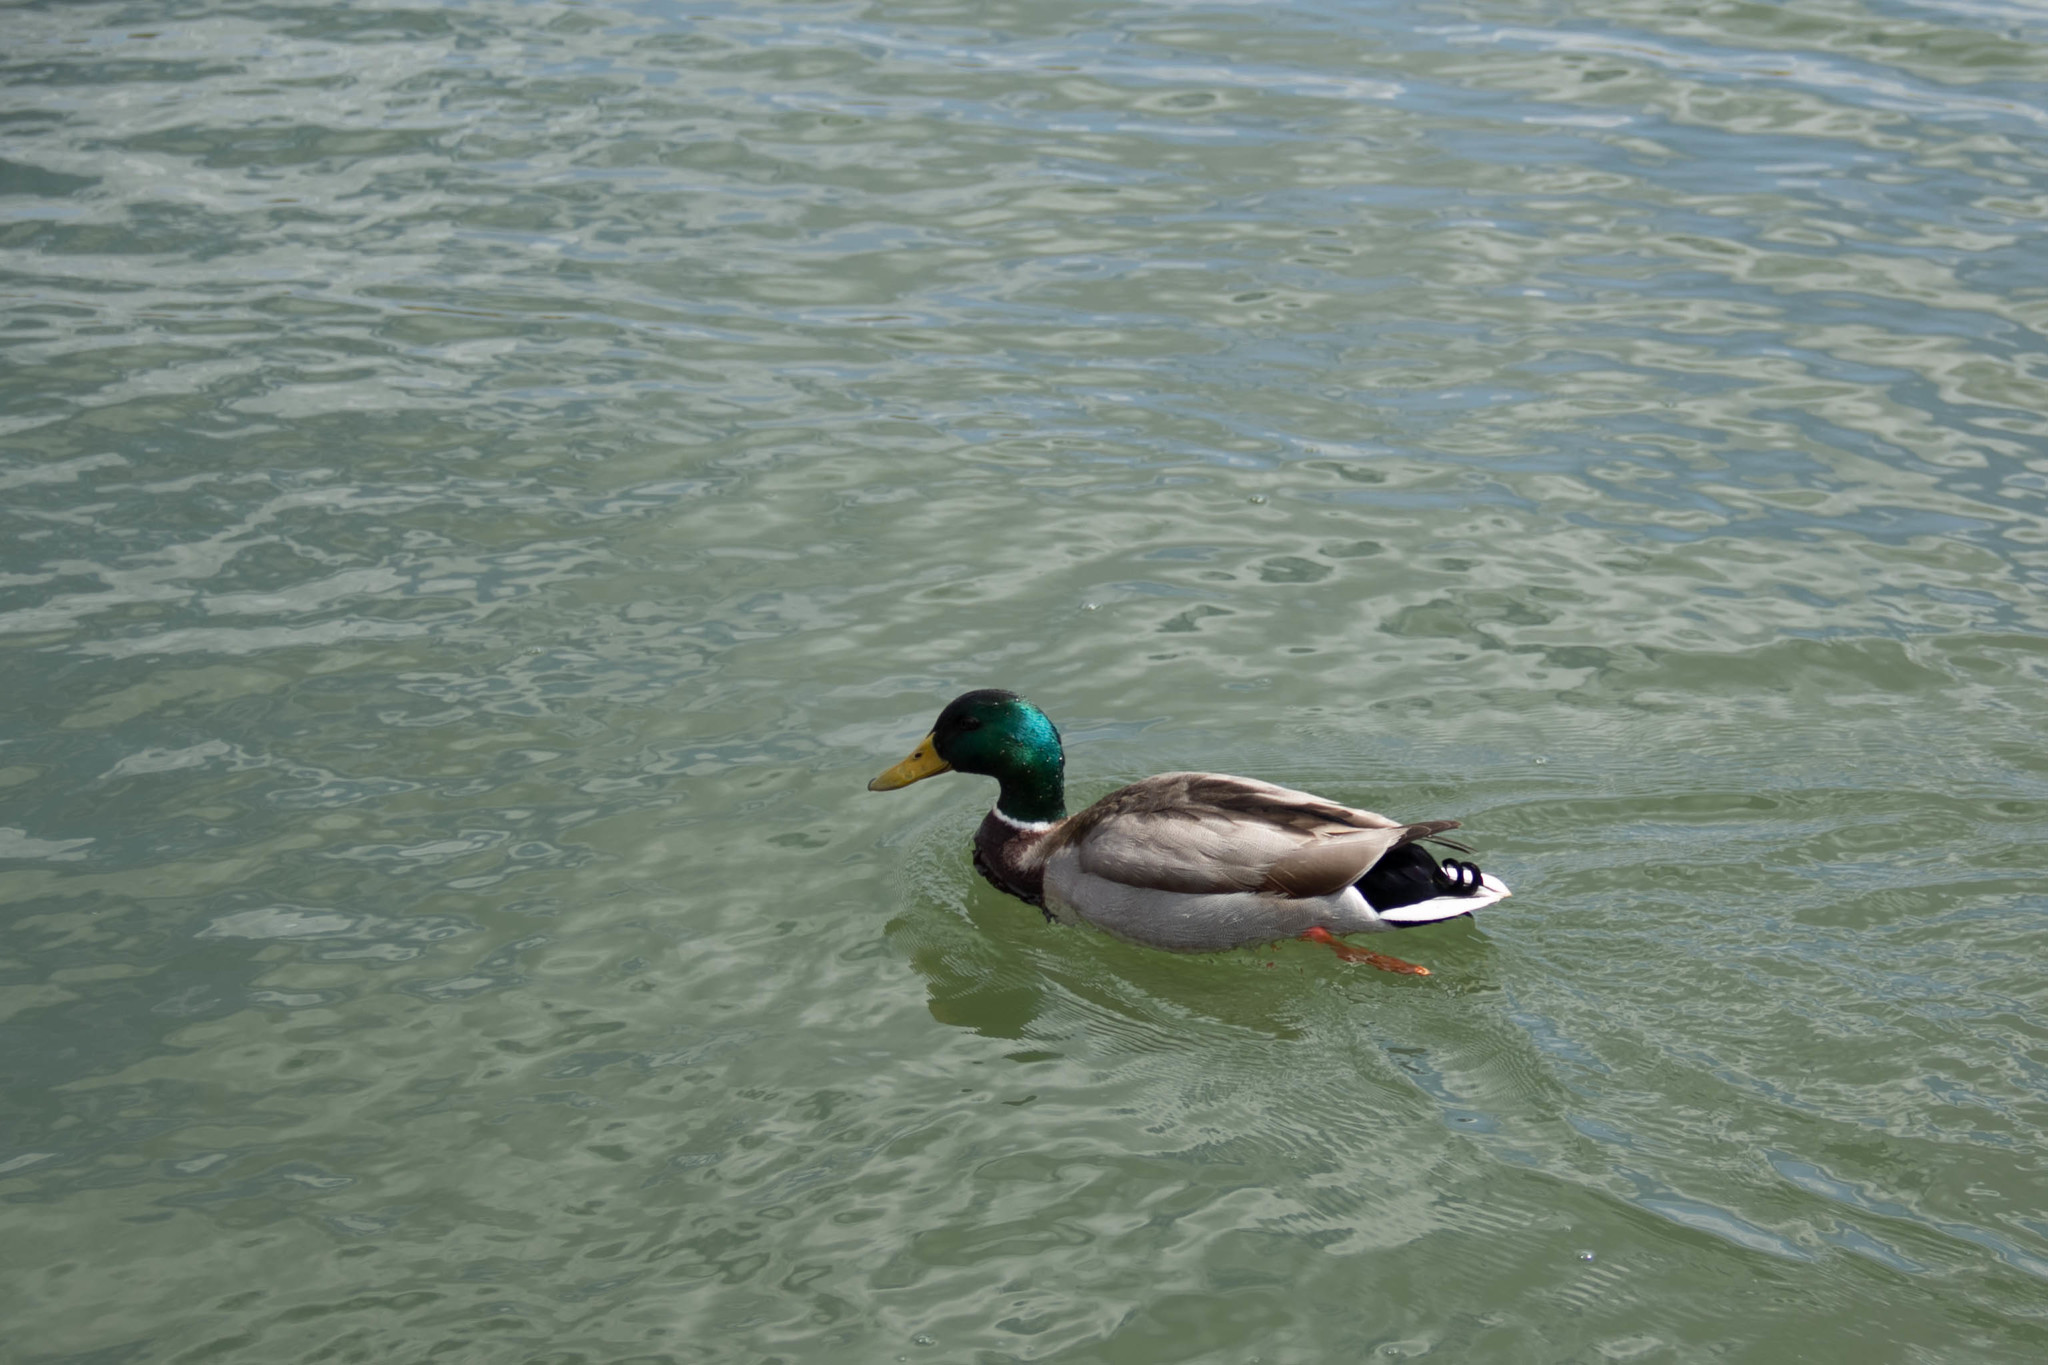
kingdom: Animalia
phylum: Chordata
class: Aves
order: Anseriformes
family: Anatidae
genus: Anas
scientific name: Anas platyrhynchos
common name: Mallard
